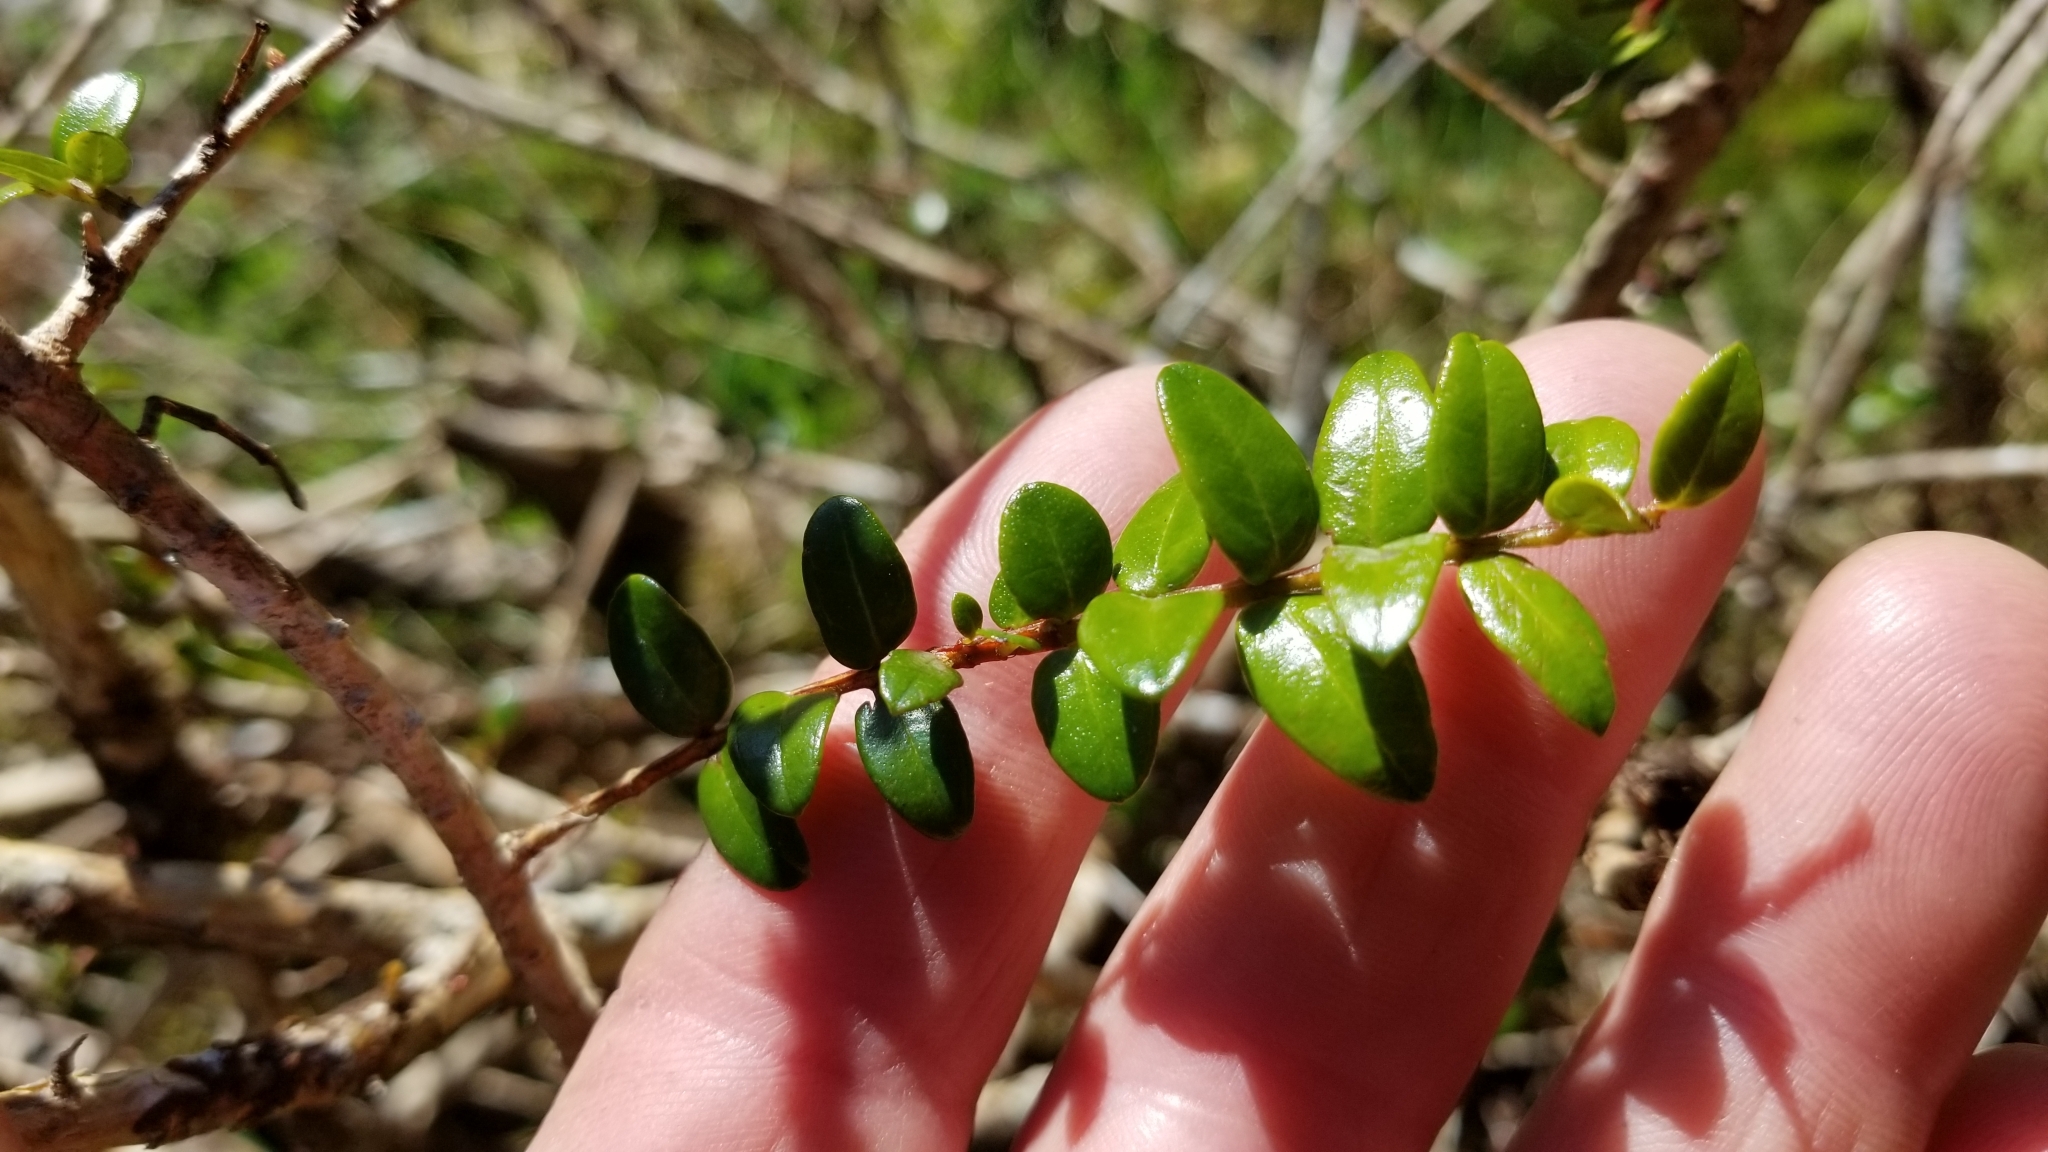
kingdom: Plantae
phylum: Tracheophyta
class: Magnoliopsida
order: Myrtales
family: Myrtaceae
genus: Metrosideros
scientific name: Metrosideros diffusa
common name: Small ratavine
